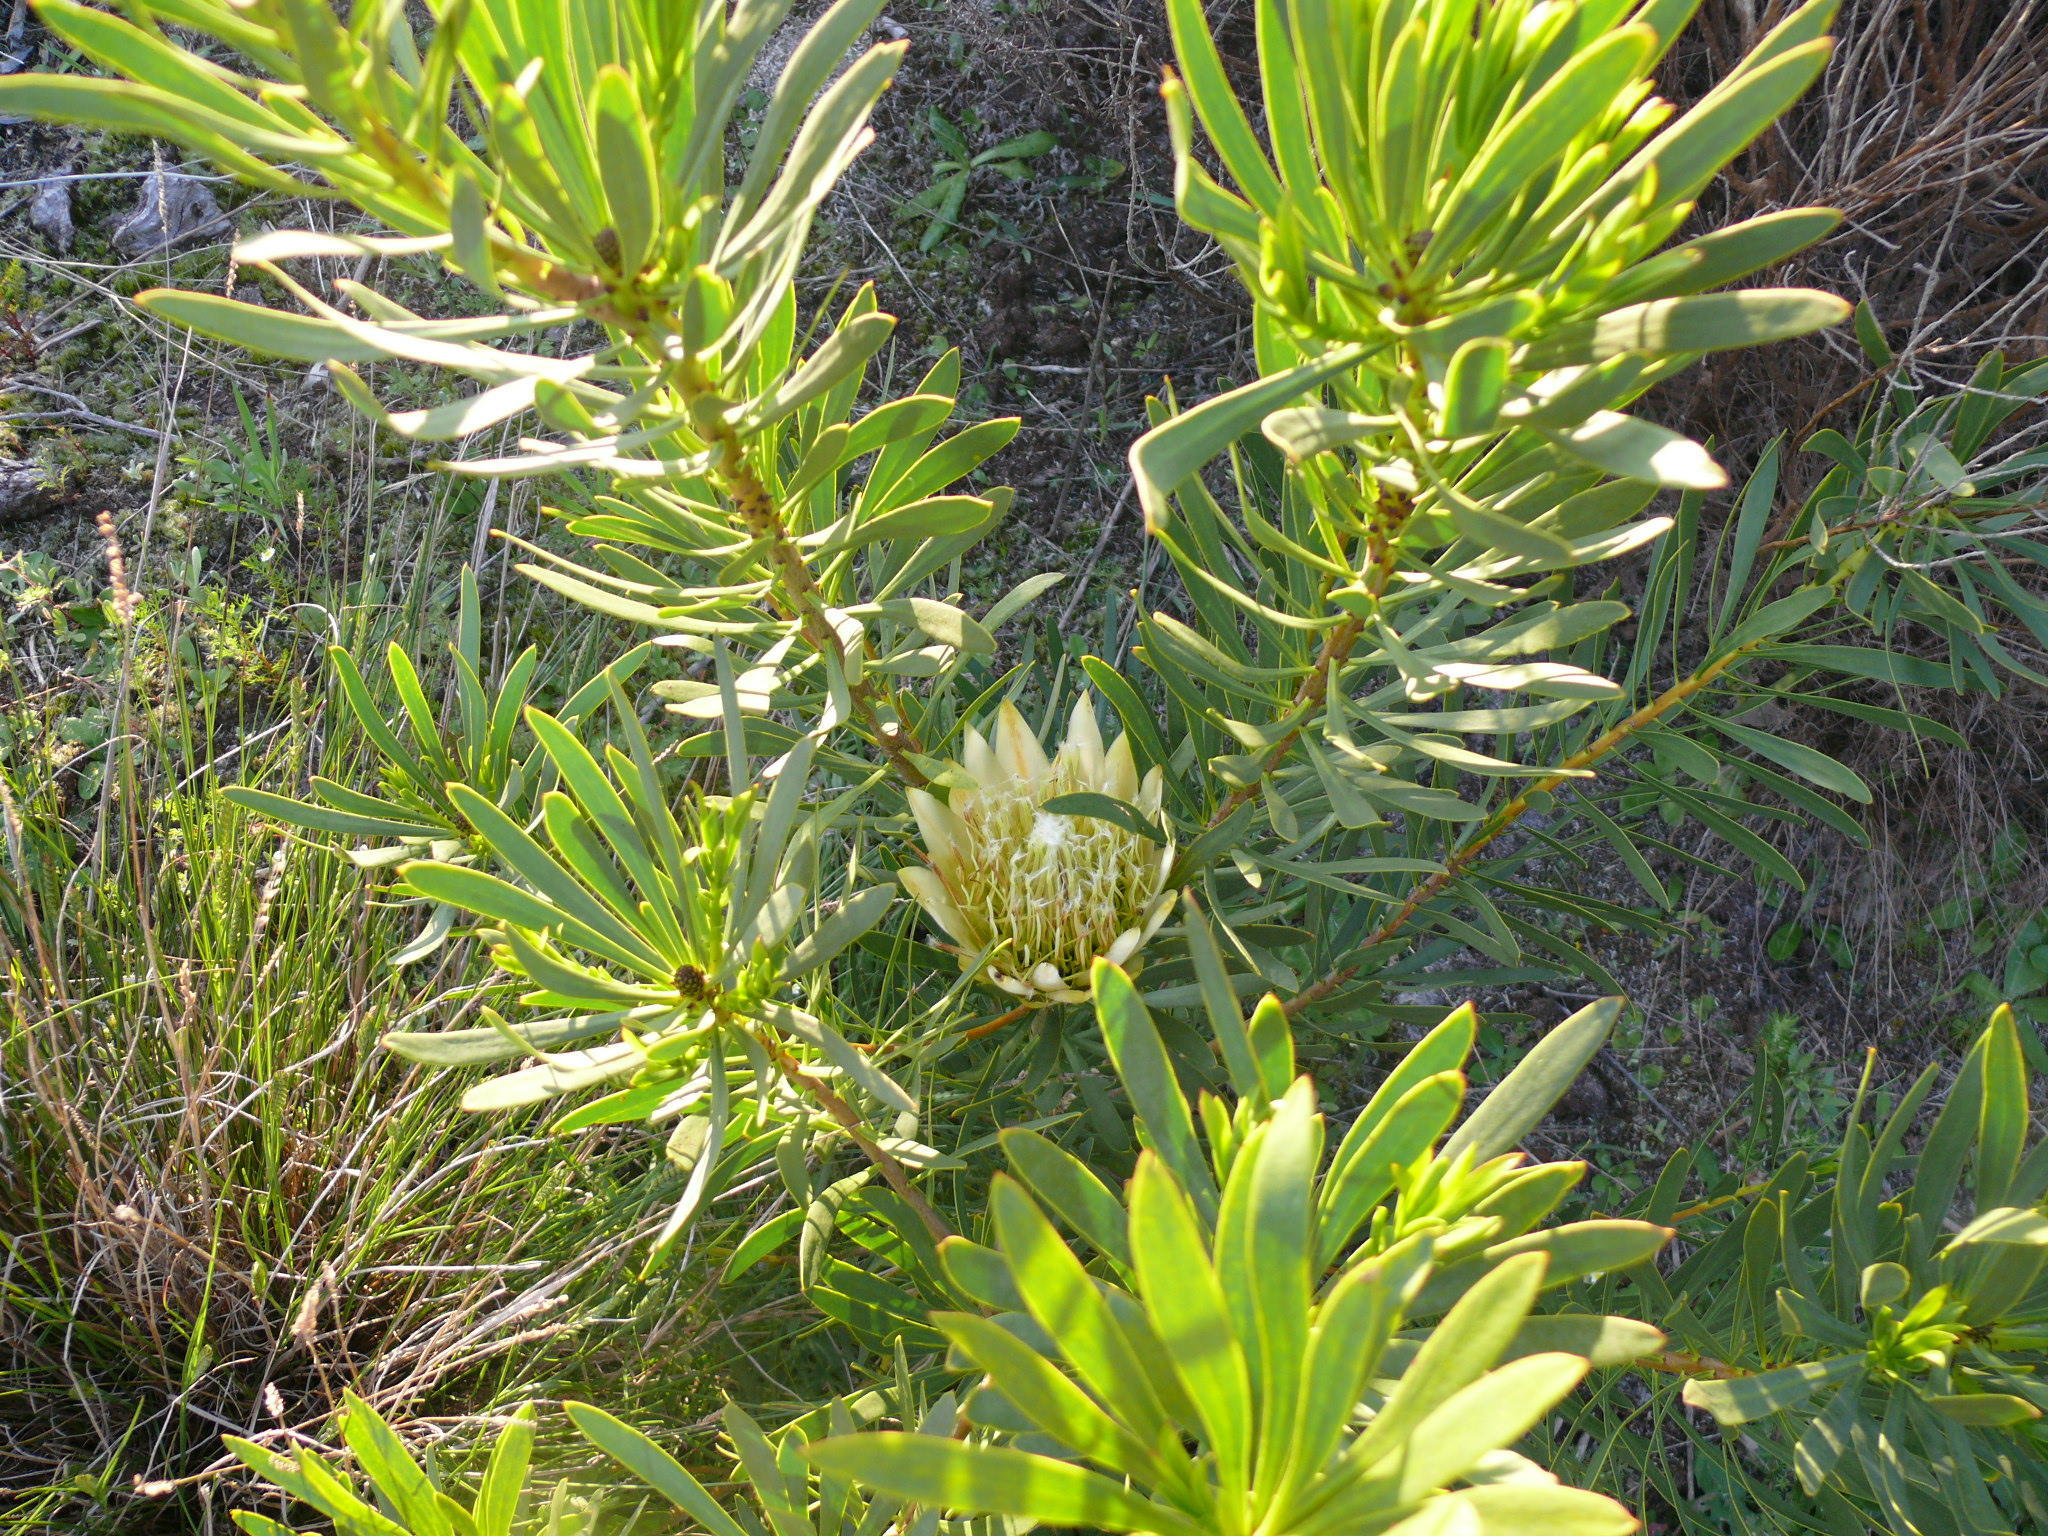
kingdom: Plantae
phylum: Tracheophyta
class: Magnoliopsida
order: Proteales
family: Proteaceae
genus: Protea
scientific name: Protea repens
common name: Sugarbush
